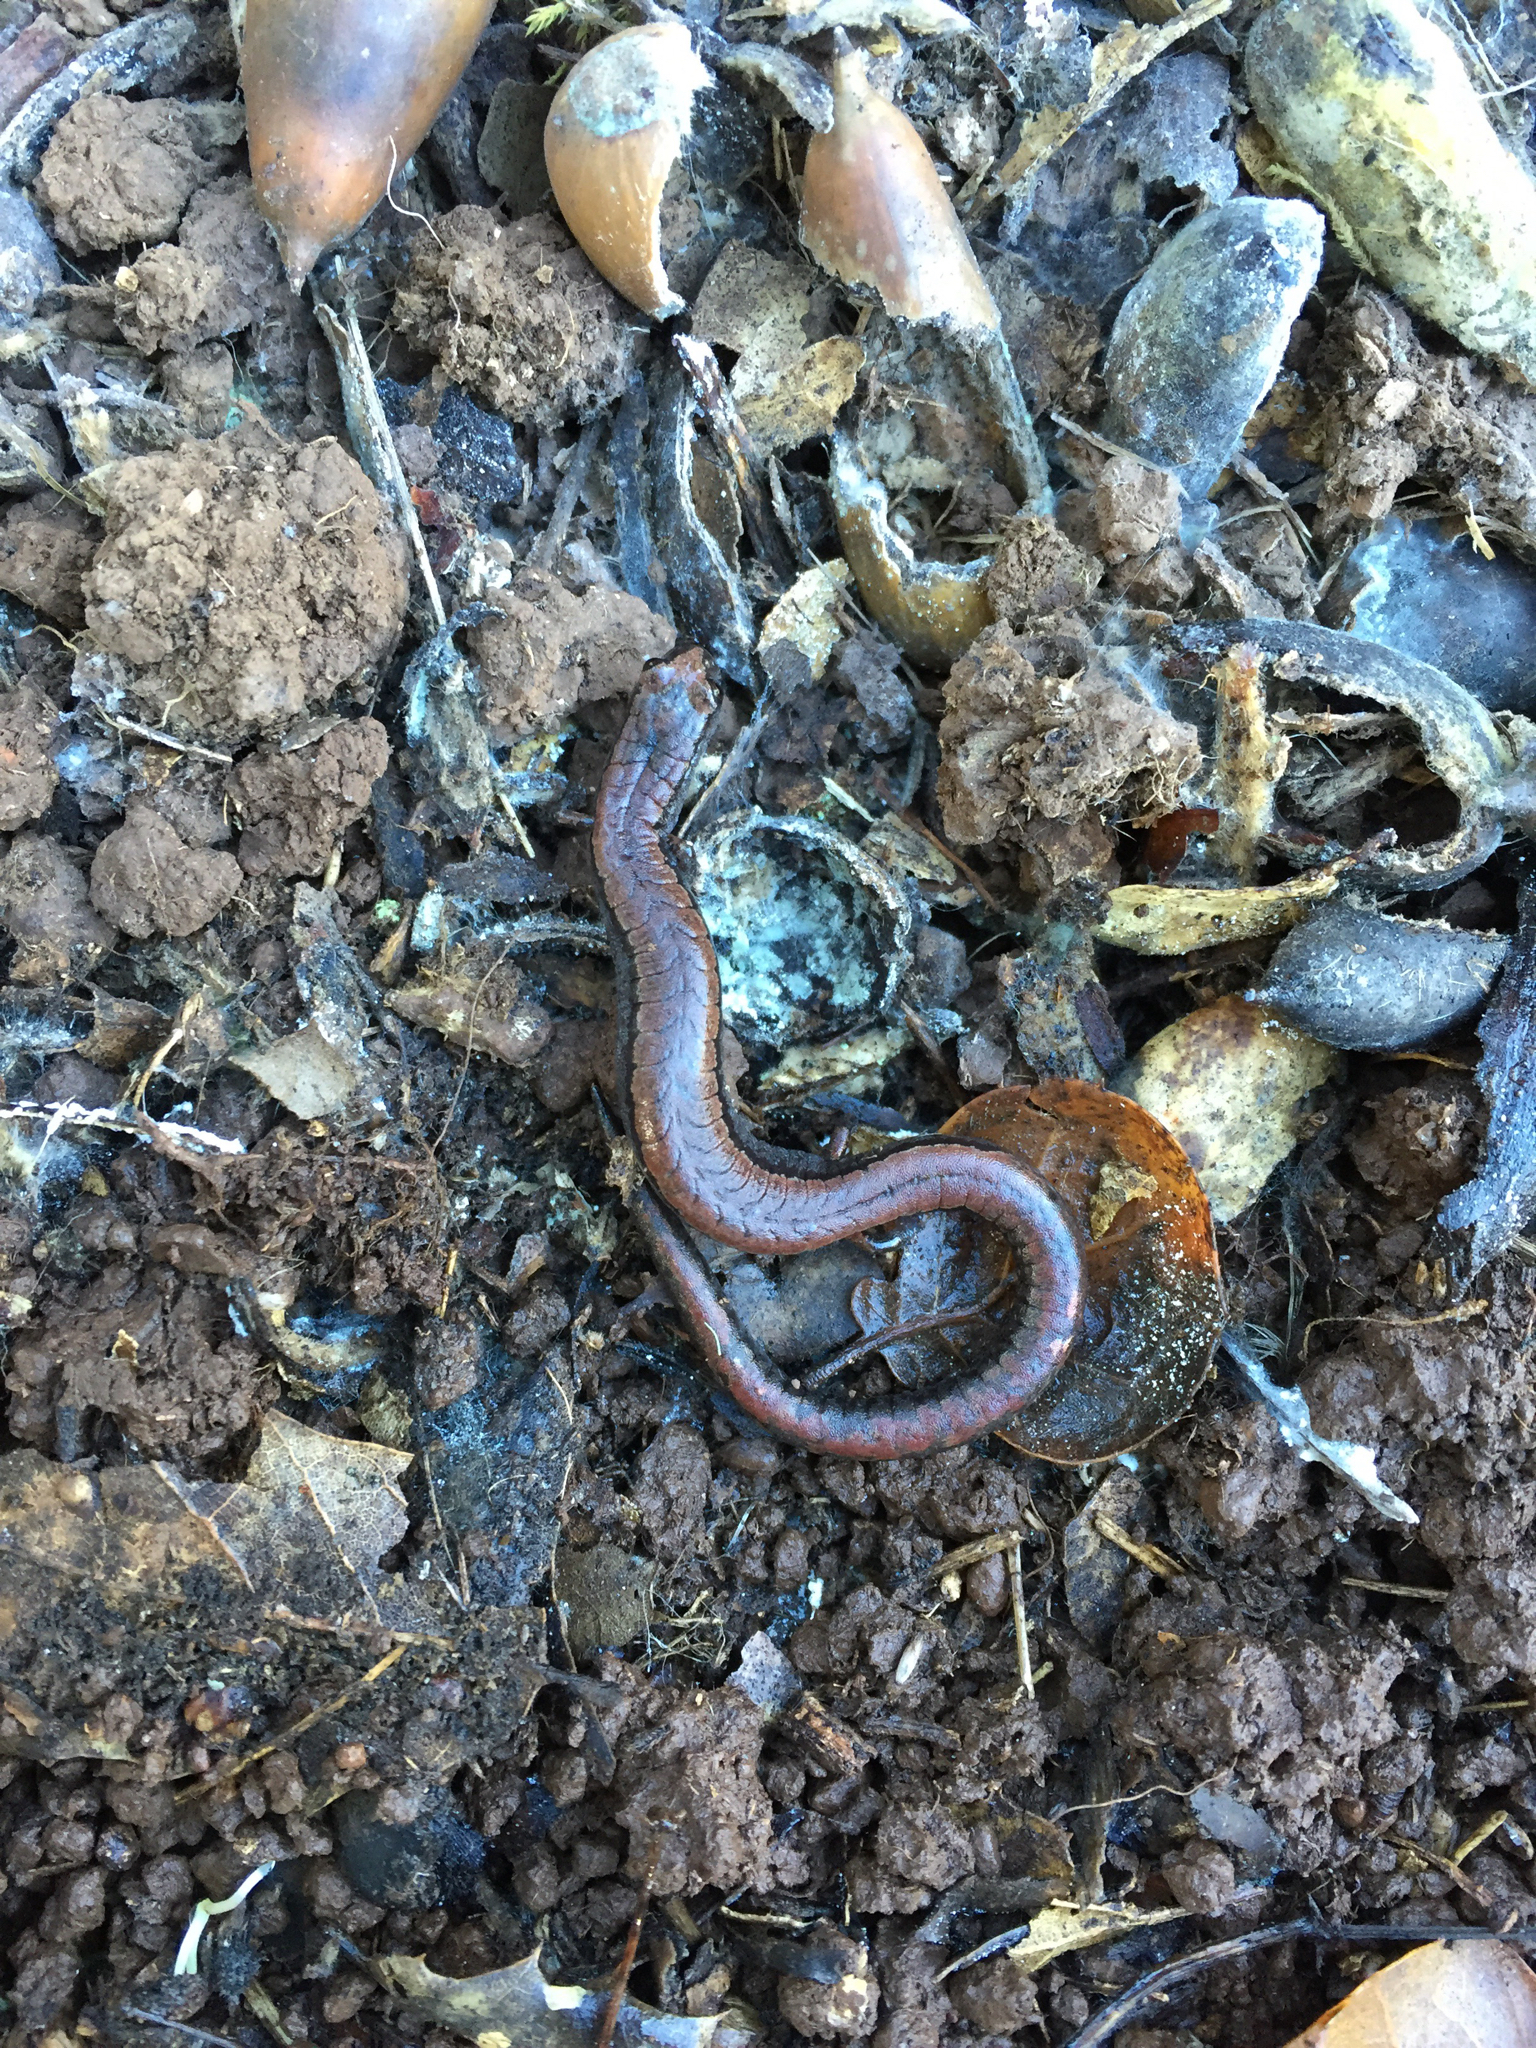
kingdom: Animalia
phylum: Chordata
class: Amphibia
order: Caudata
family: Plethodontidae
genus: Batrachoseps
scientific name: Batrachoseps attenuatus
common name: California slender salamander
